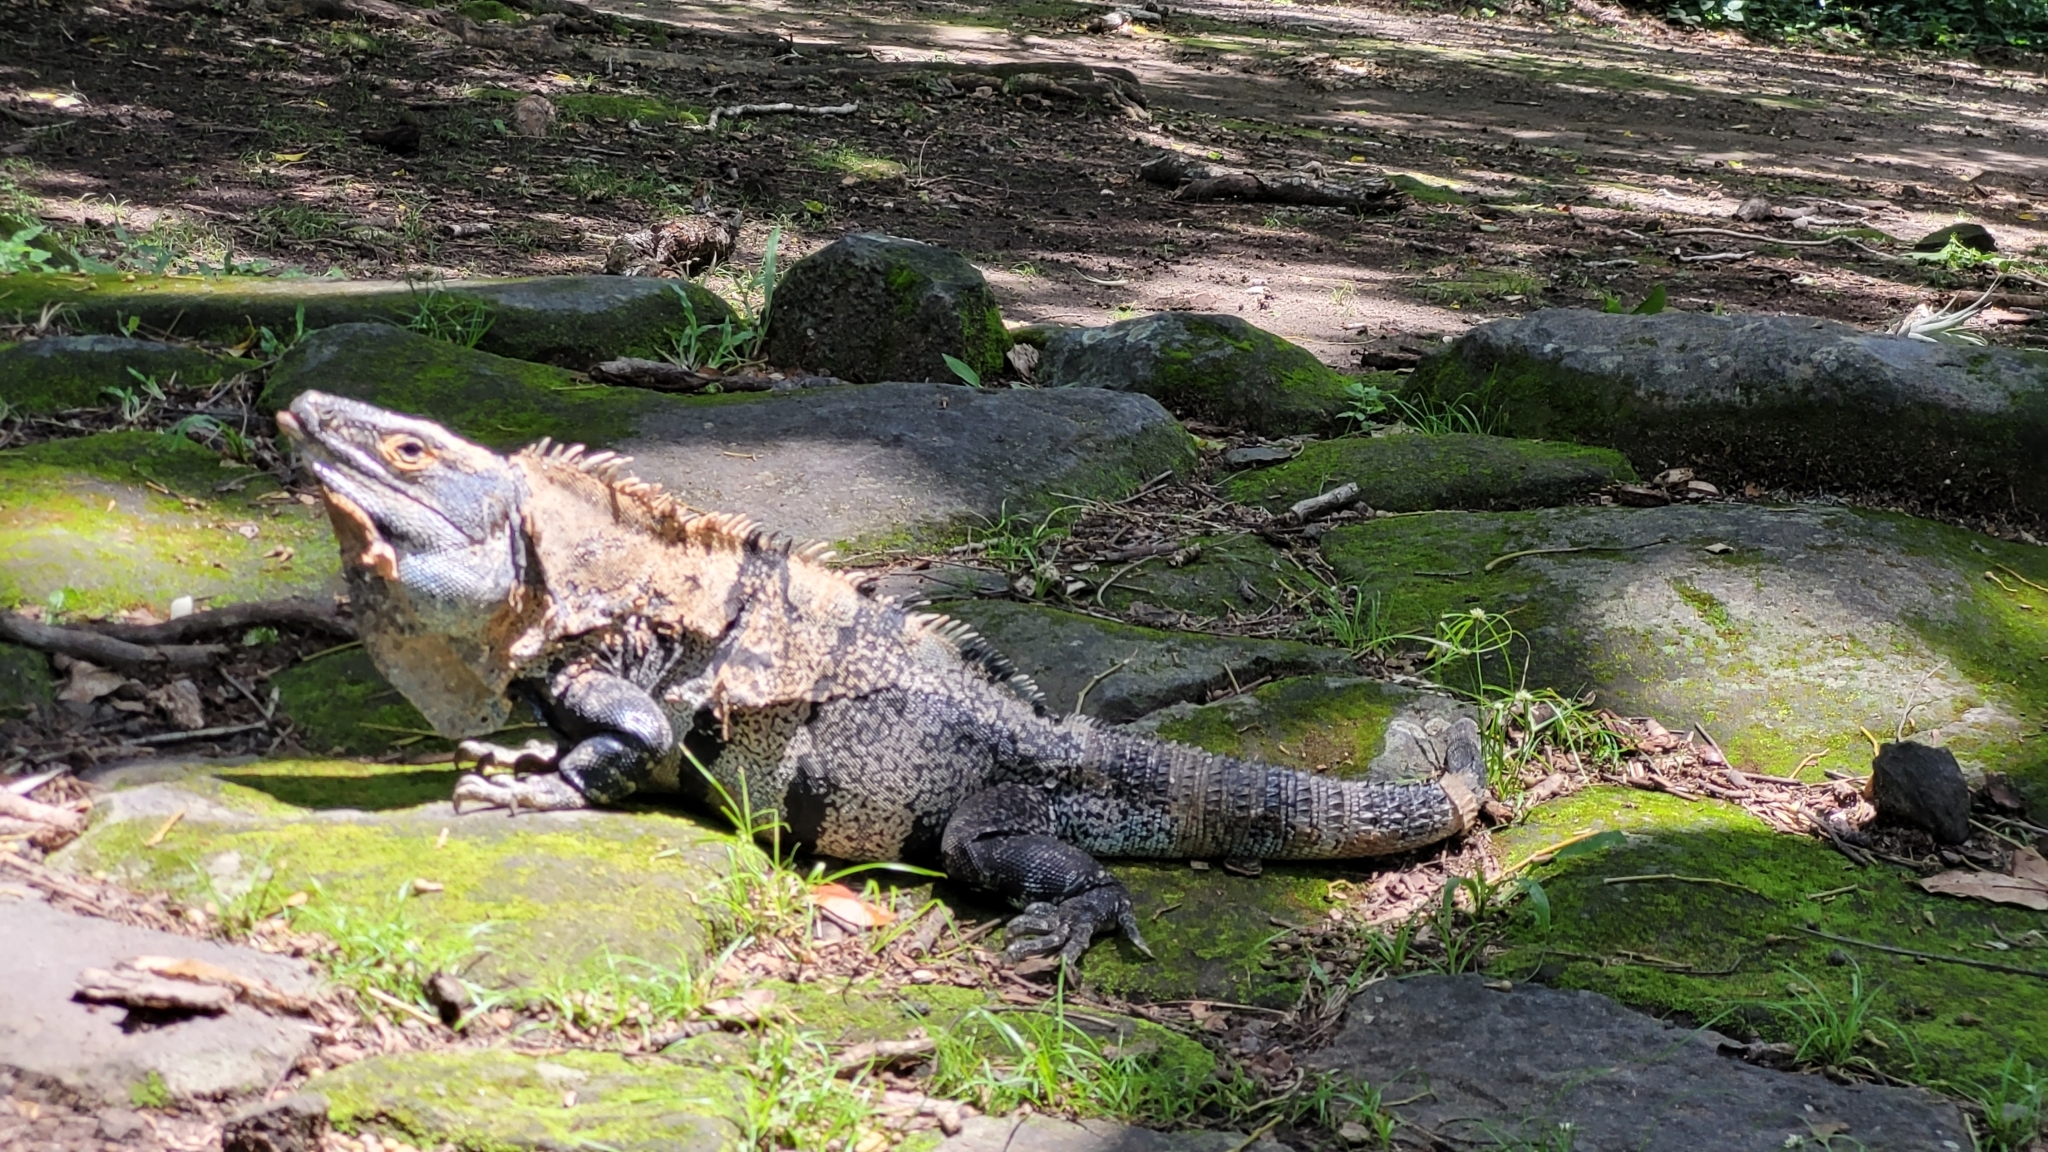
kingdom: Animalia
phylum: Chordata
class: Squamata
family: Iguanidae
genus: Ctenosaura
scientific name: Ctenosaura similis
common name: Black spiny-tailed iguana
